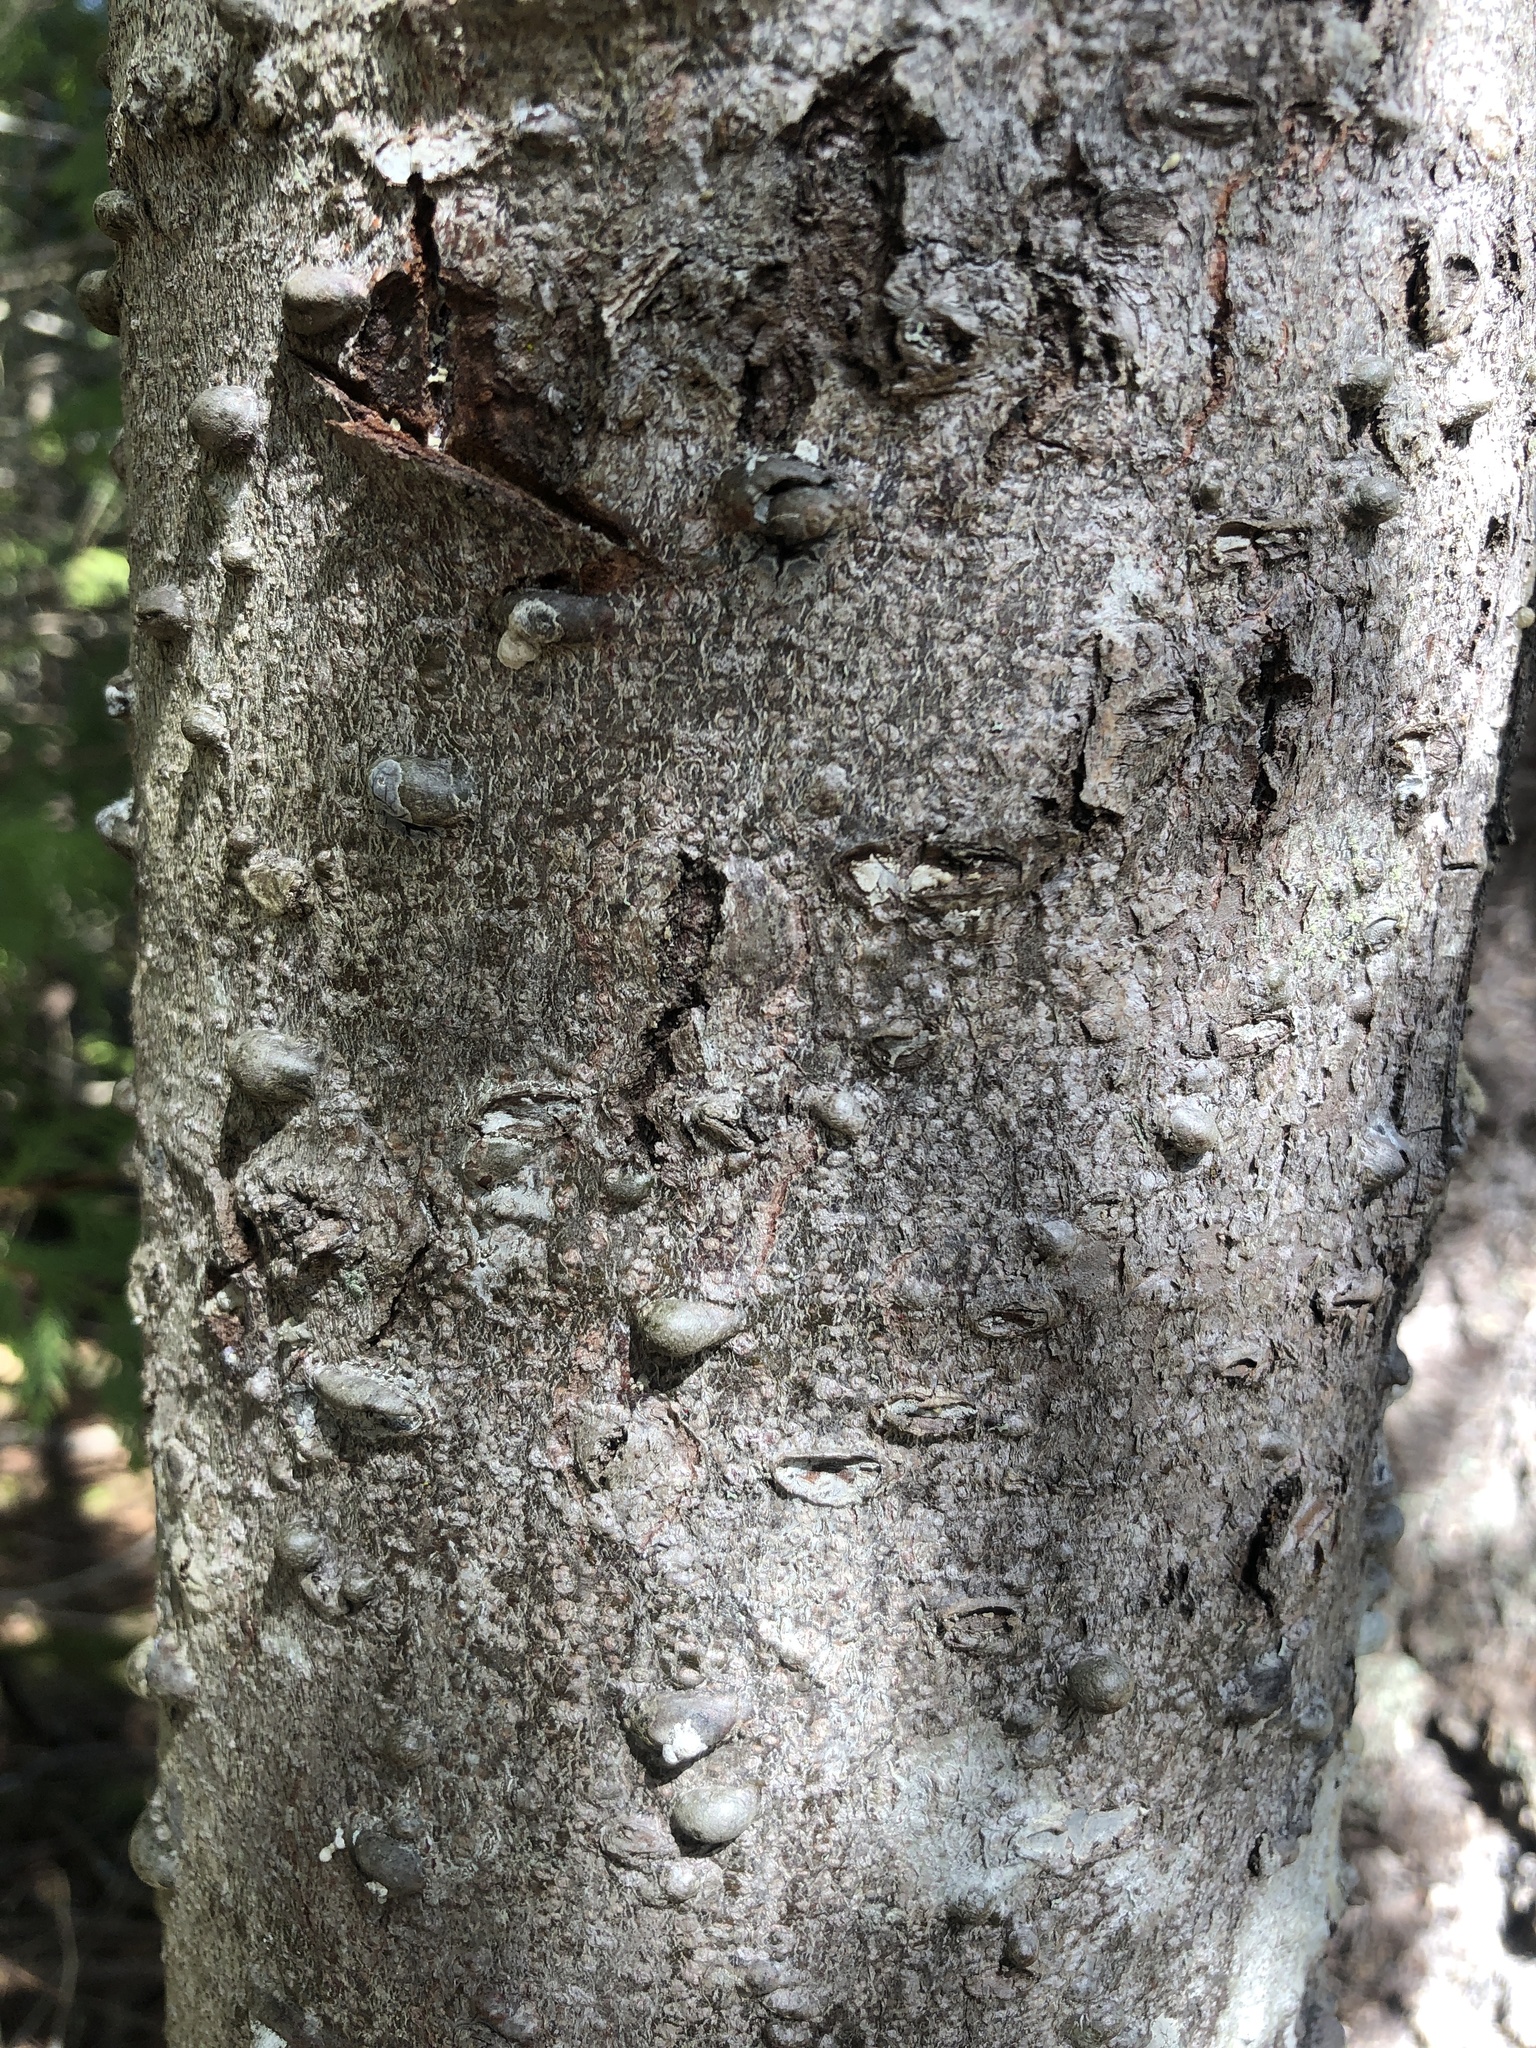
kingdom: Plantae
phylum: Tracheophyta
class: Pinopsida
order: Pinales
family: Pinaceae
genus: Abies
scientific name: Abies grandis
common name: Giant fir
